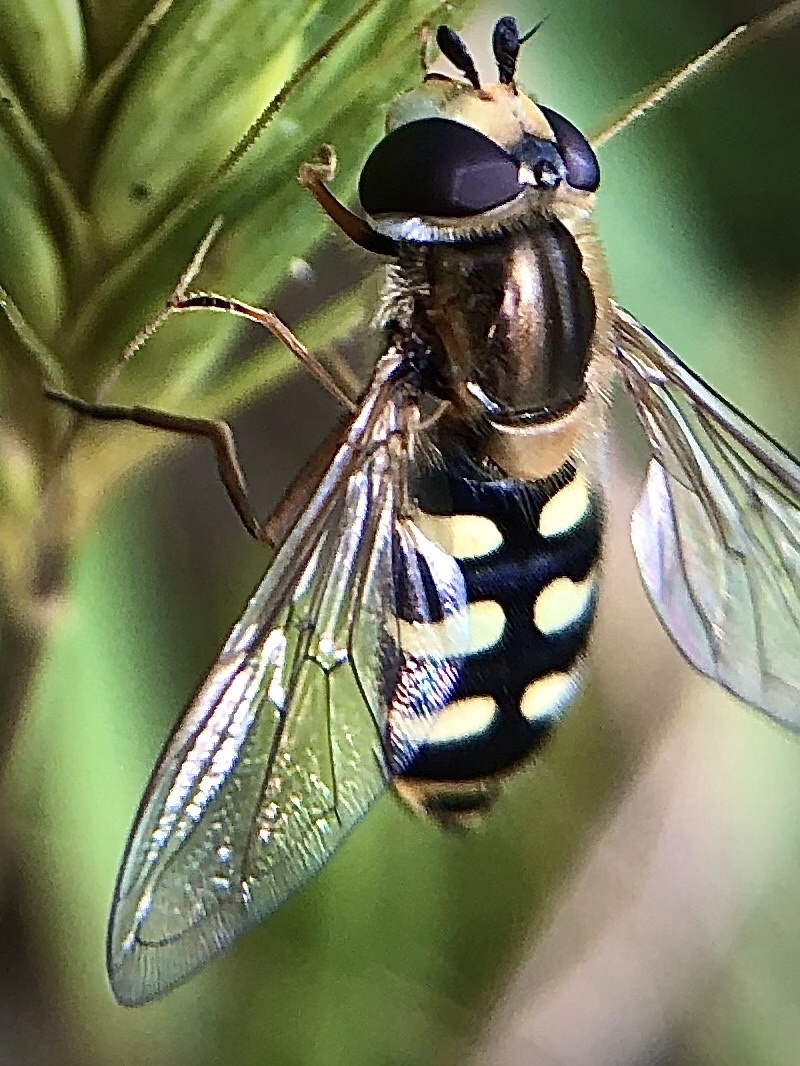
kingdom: Animalia
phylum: Arthropoda
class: Insecta
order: Diptera
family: Syrphidae
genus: Eupeodes
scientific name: Eupeodes corollae
